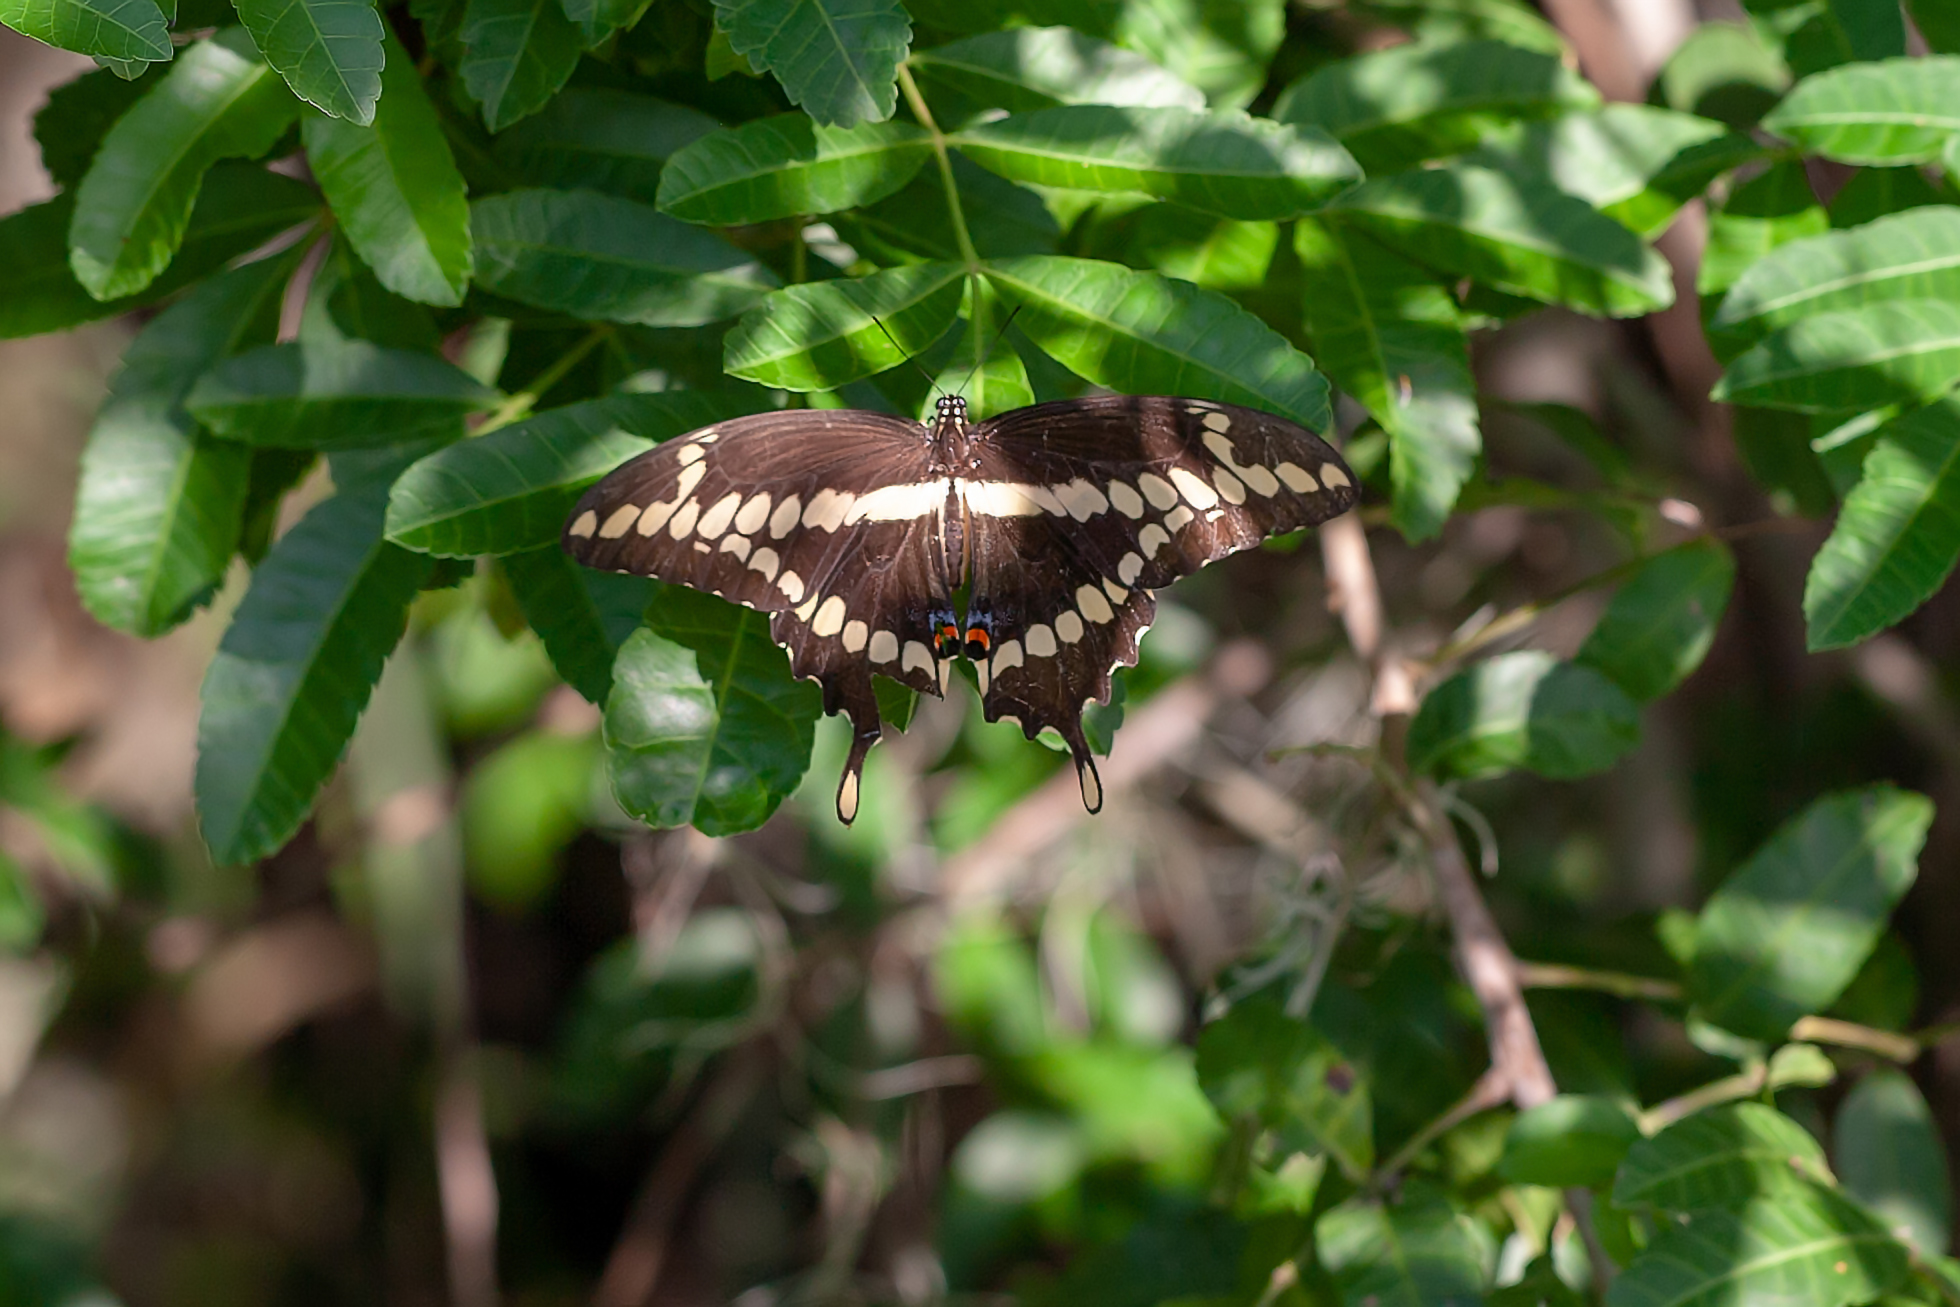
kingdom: Animalia
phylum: Arthropoda
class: Insecta
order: Lepidoptera
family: Papilionidae
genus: Papilio
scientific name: Papilio cresphontes
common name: Giant swallowtail
